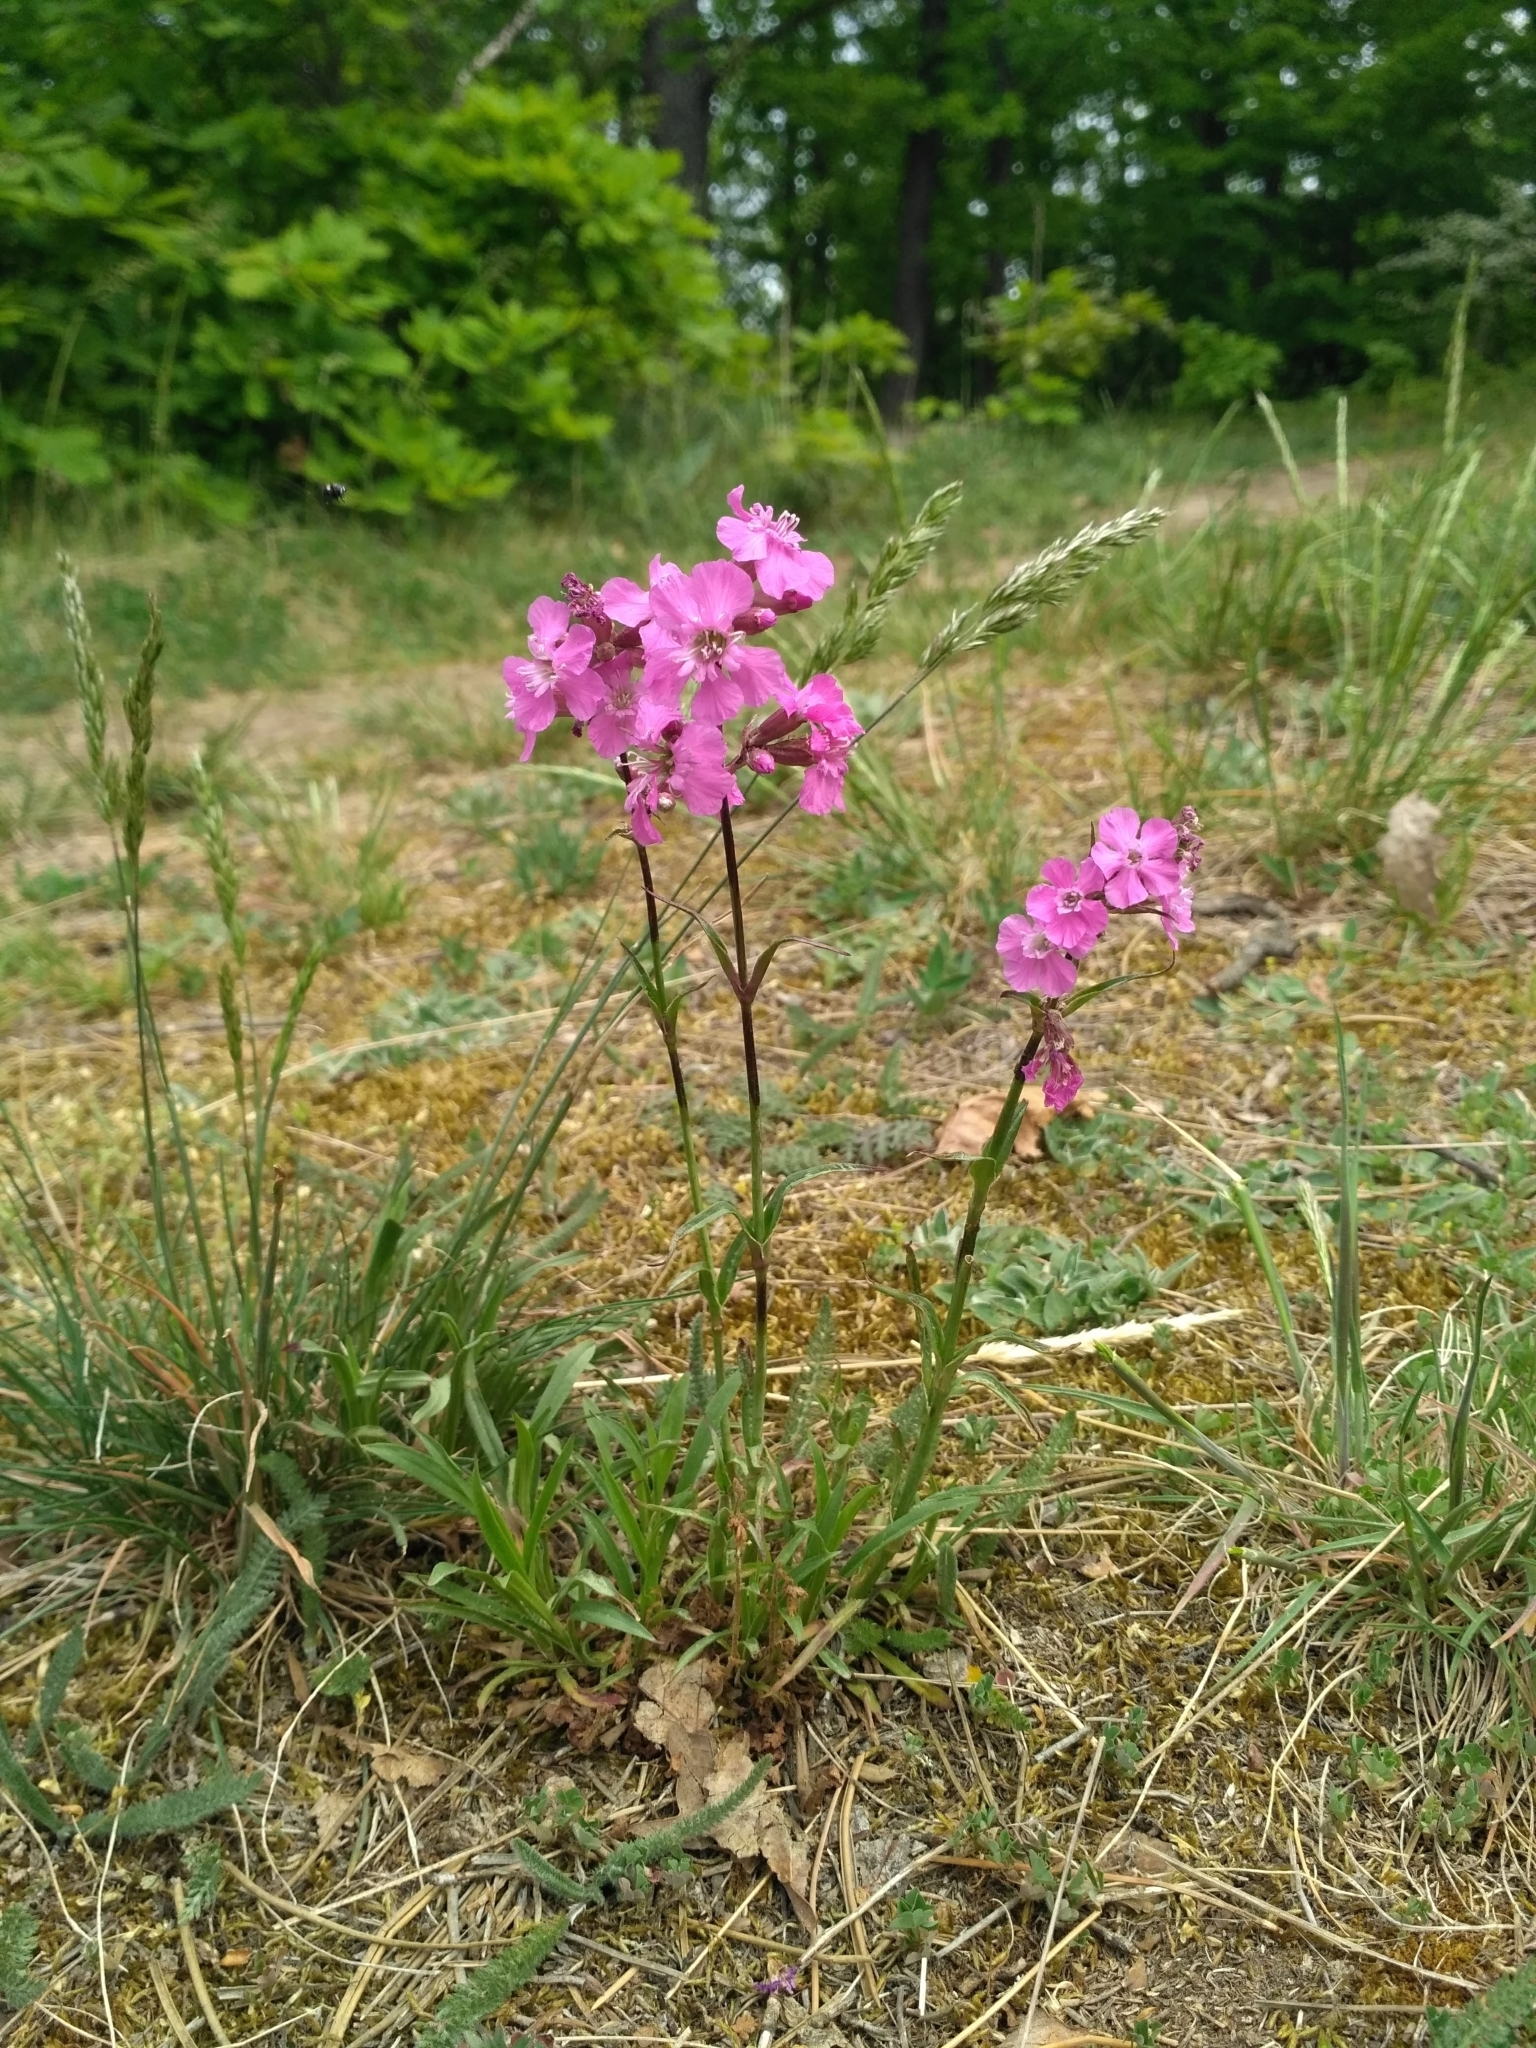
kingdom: Plantae
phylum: Tracheophyta
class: Magnoliopsida
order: Caryophyllales
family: Caryophyllaceae
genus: Viscaria
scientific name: Viscaria vulgaris
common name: Clammy campion
